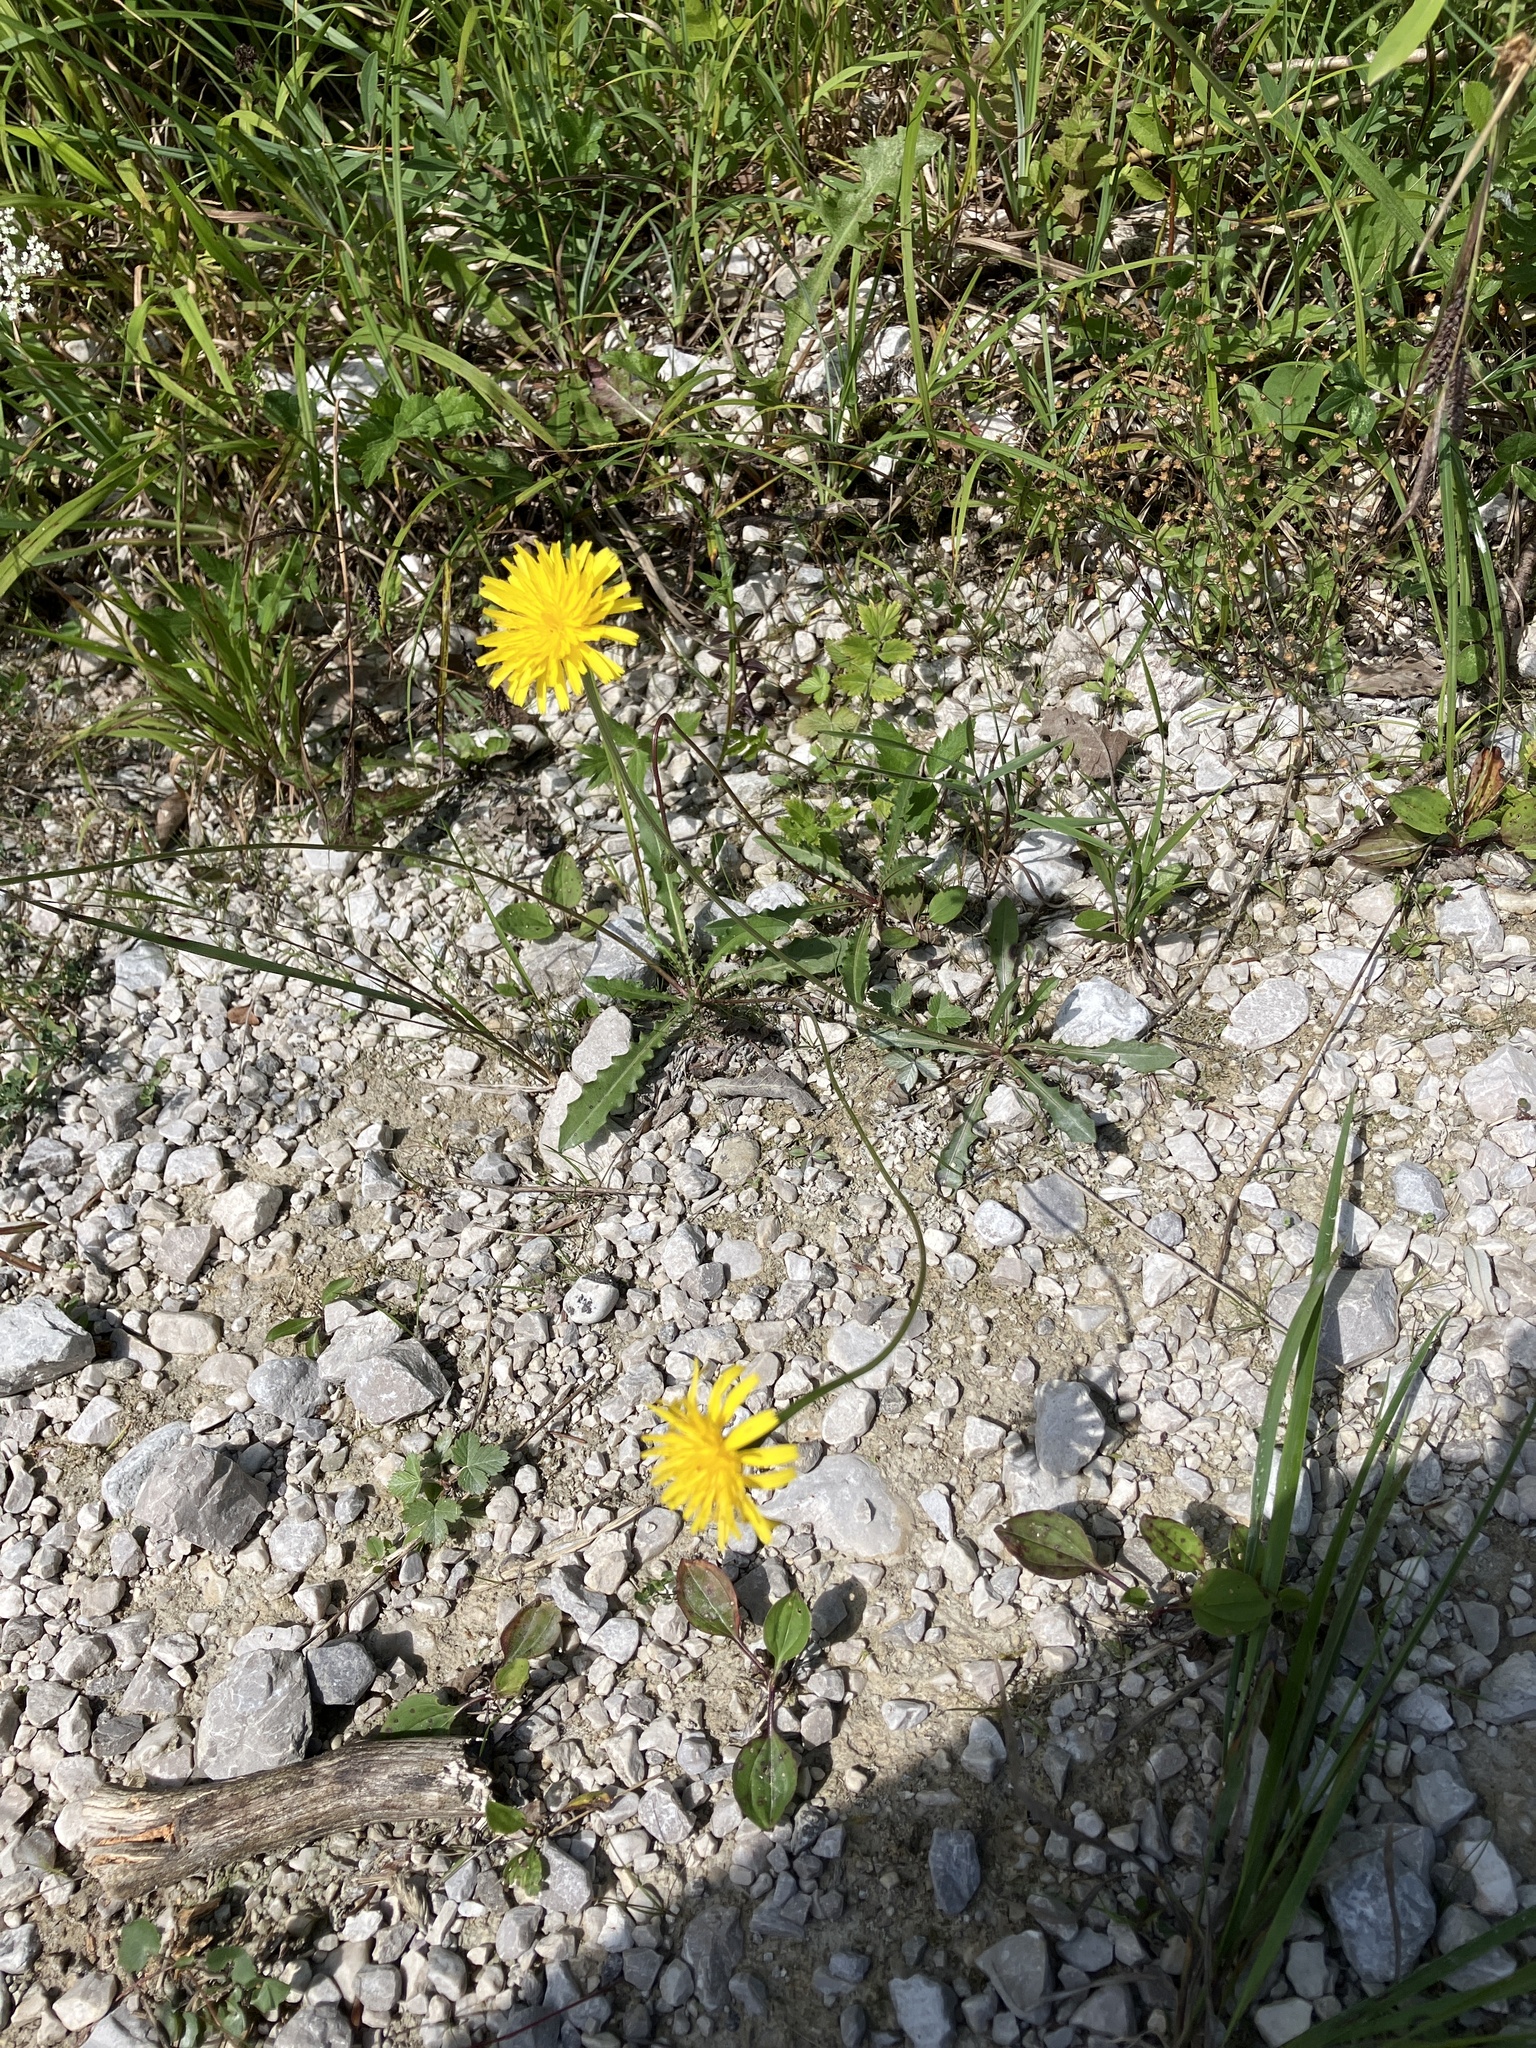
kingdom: Plantae
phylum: Tracheophyta
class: Magnoliopsida
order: Asterales
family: Asteraceae
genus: Leontodon
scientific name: Leontodon hispidus
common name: Rough hawkbit
